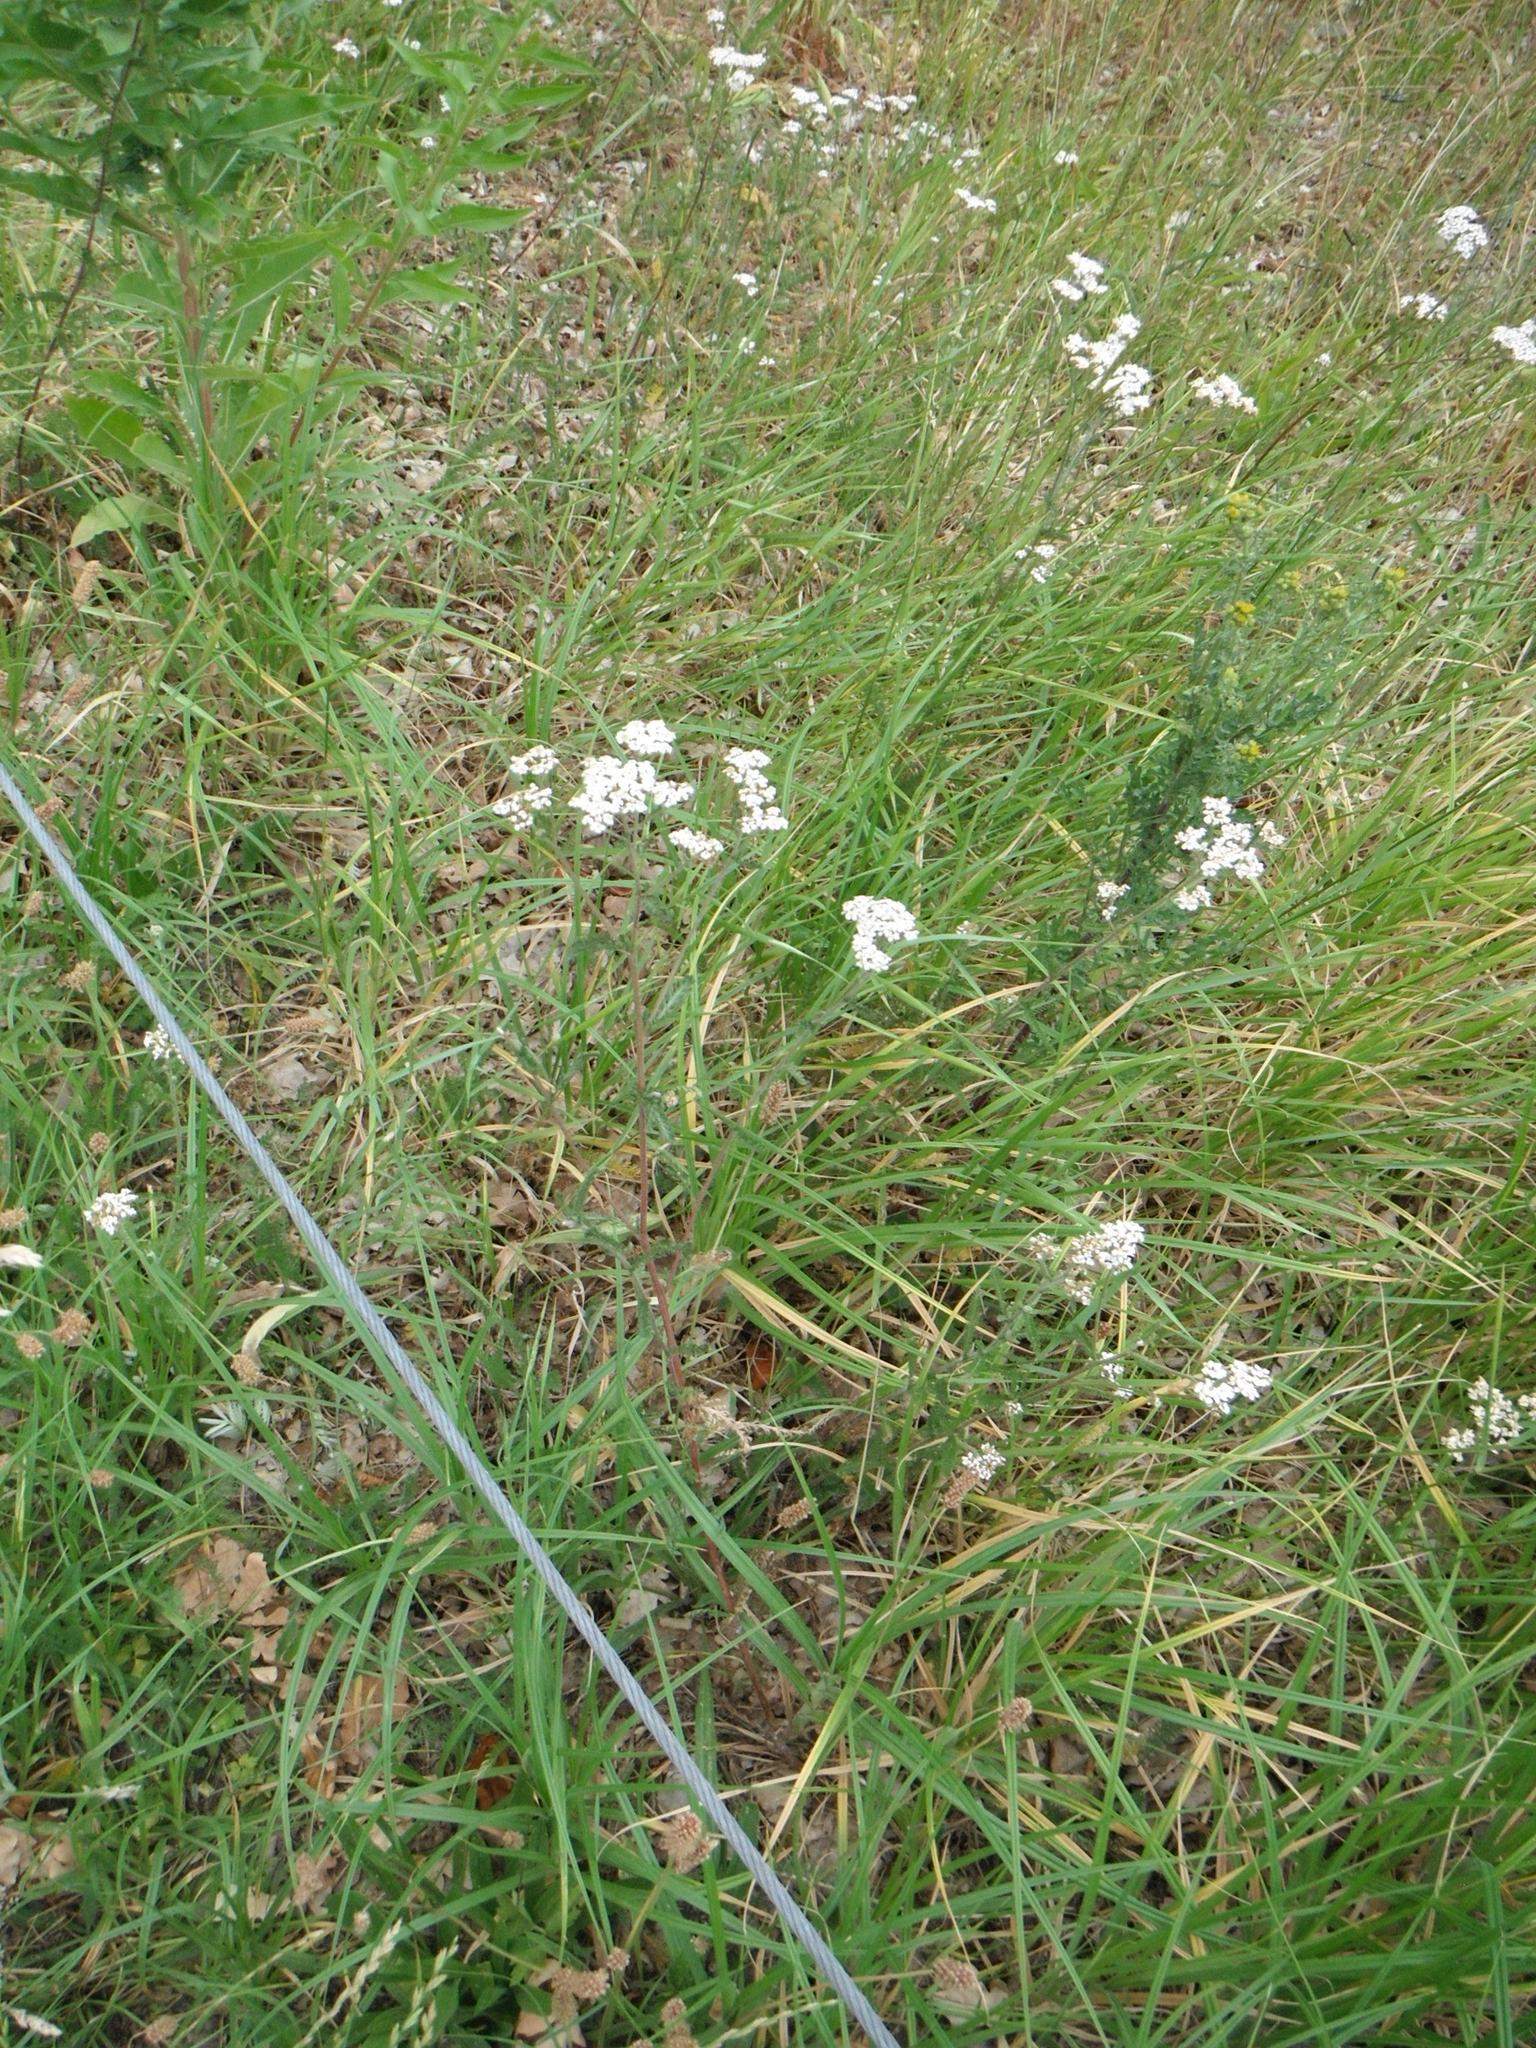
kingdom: Plantae
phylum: Tracheophyta
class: Magnoliopsida
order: Asterales
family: Asteraceae
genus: Achillea
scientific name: Achillea millefolium
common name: Yarrow
